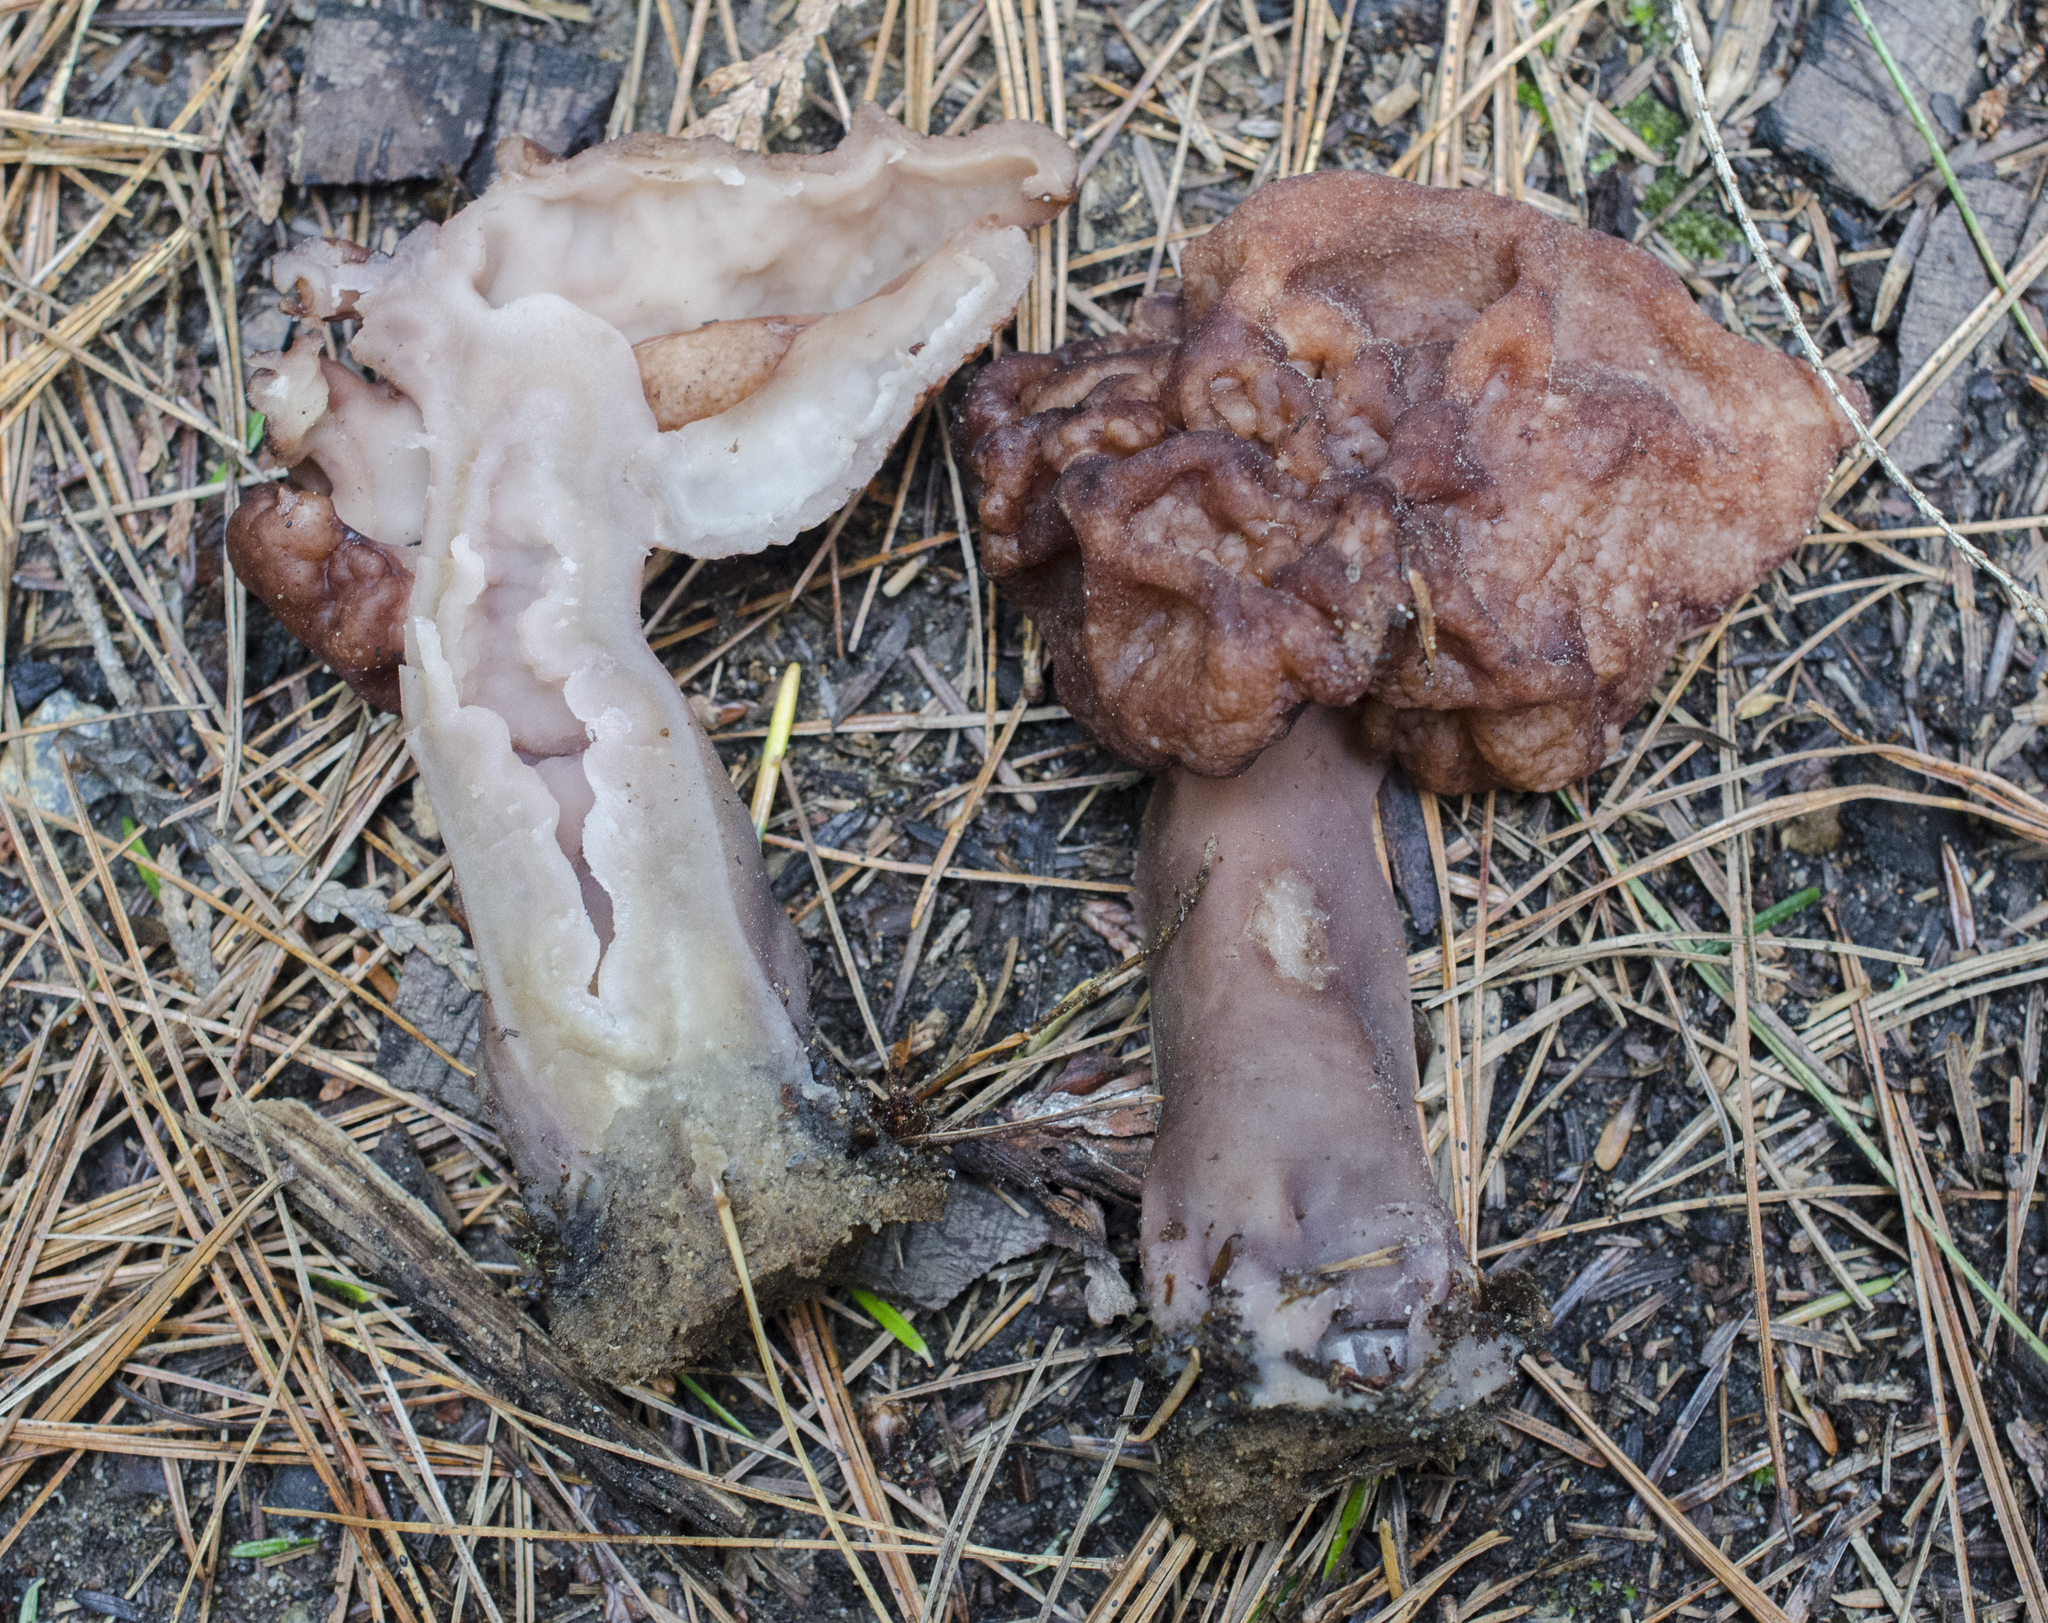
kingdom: Fungi
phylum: Ascomycota
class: Pezizomycetes
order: Pezizales
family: Discinaceae
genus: Gyromitra
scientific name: Gyromitra esculenta
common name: False morel
